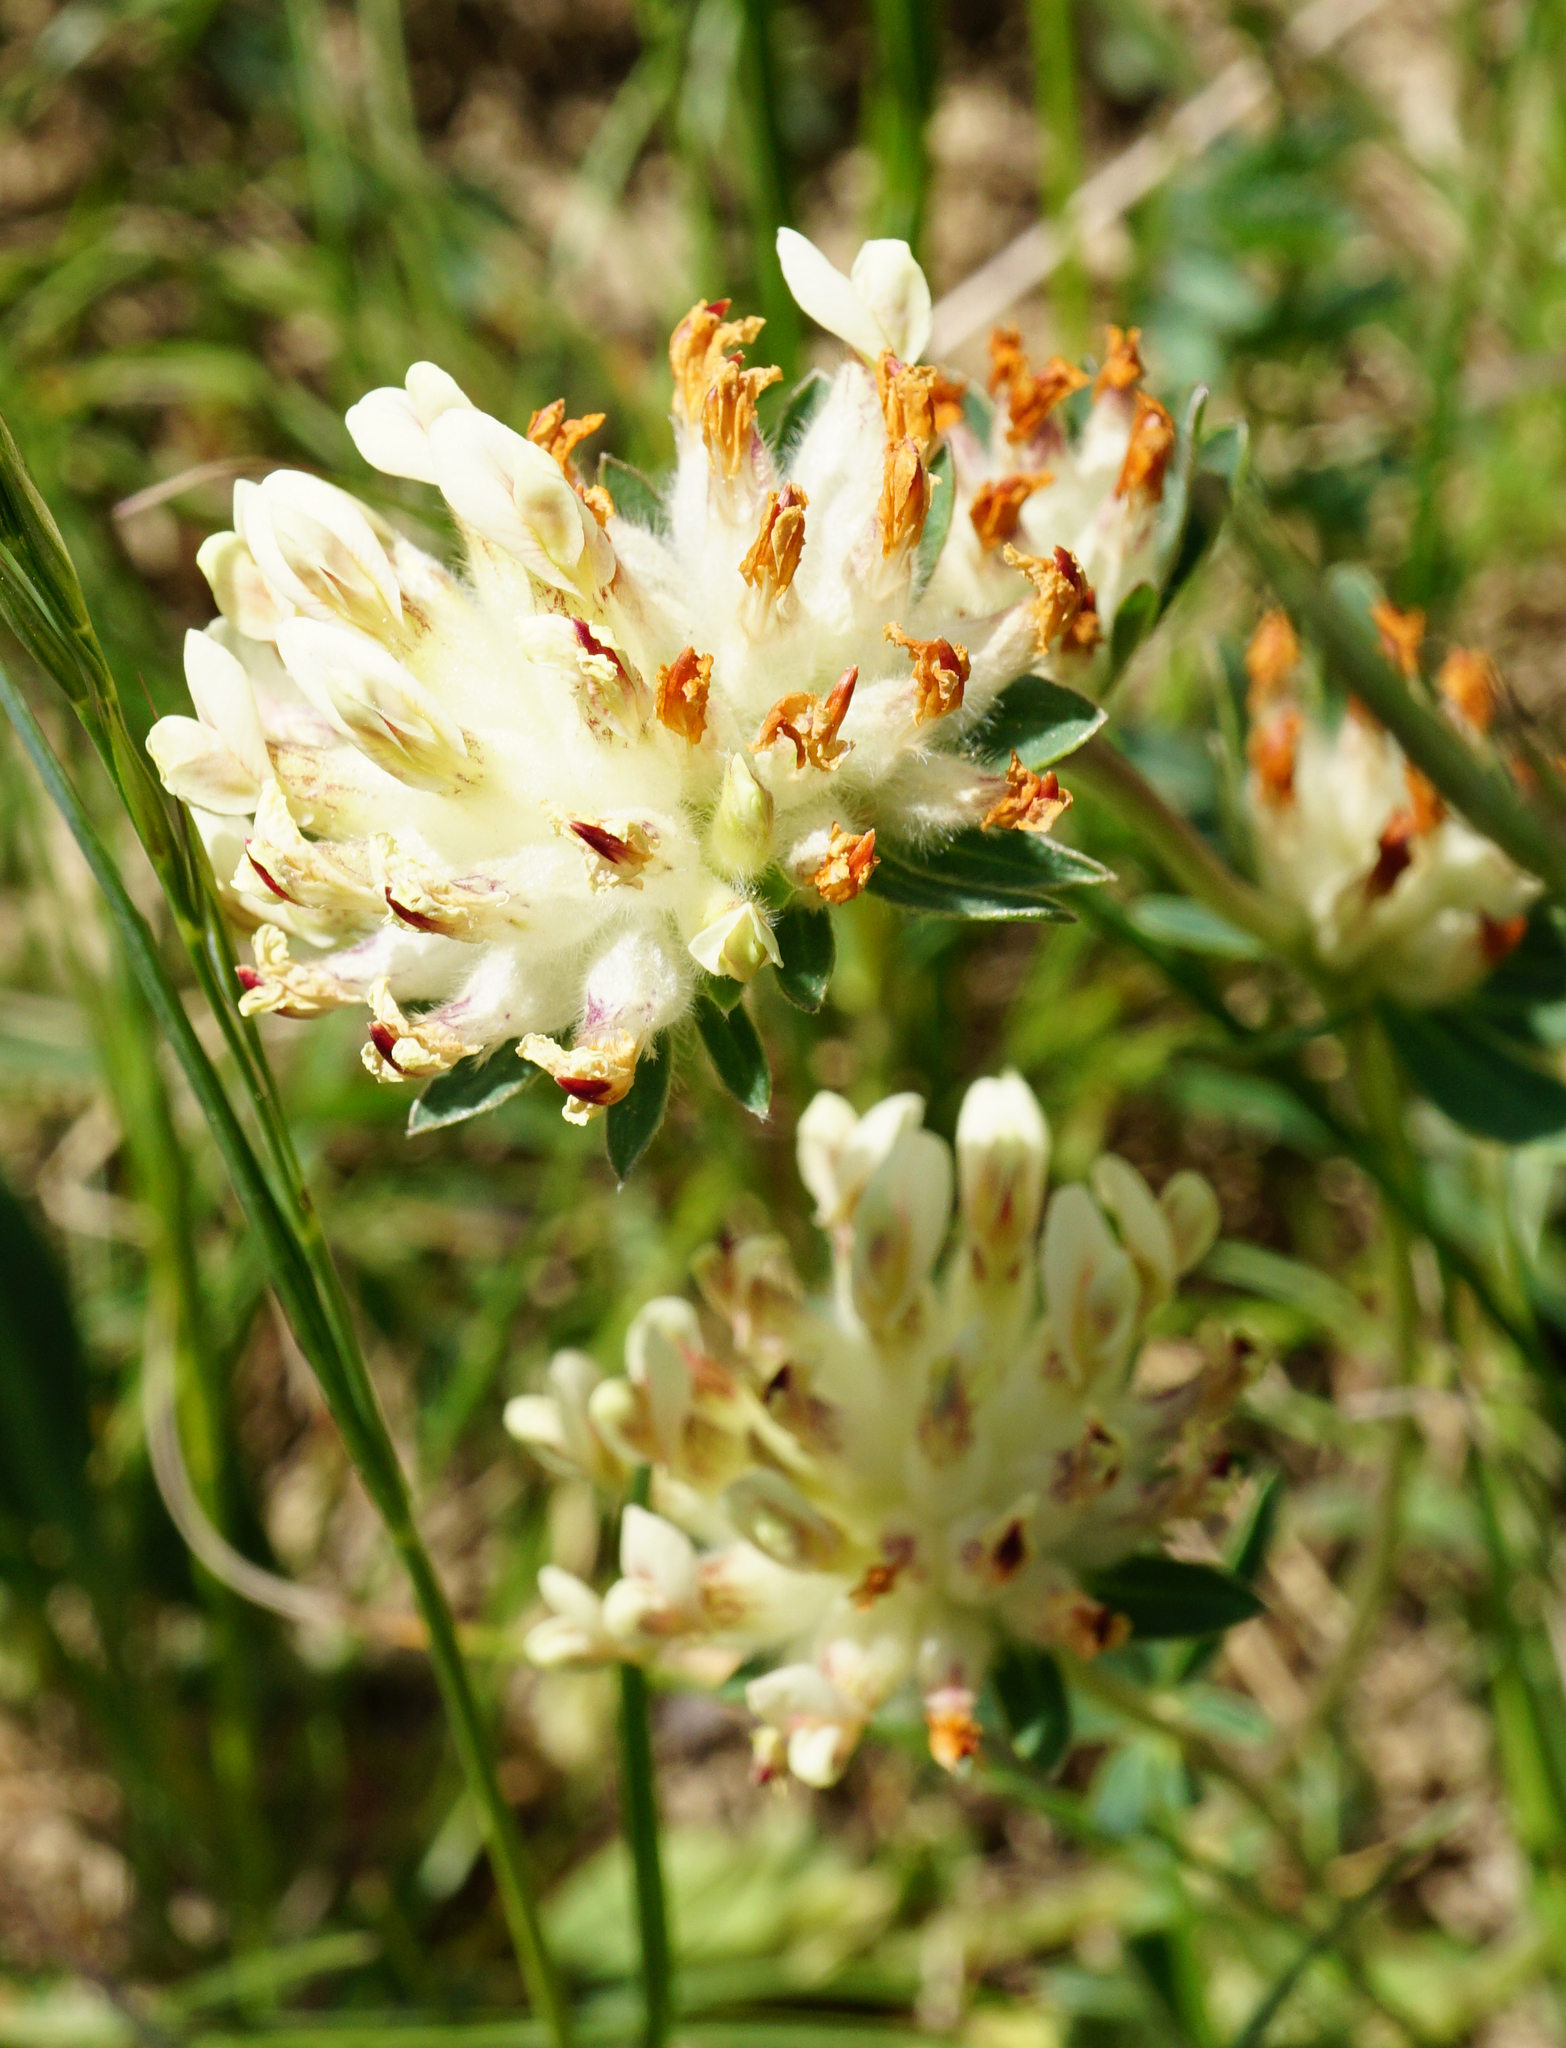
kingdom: Plantae
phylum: Tracheophyta
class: Magnoliopsida
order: Fabales
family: Fabaceae
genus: Anthyllis
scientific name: Anthyllis vulneraria
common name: Kidney vetch
